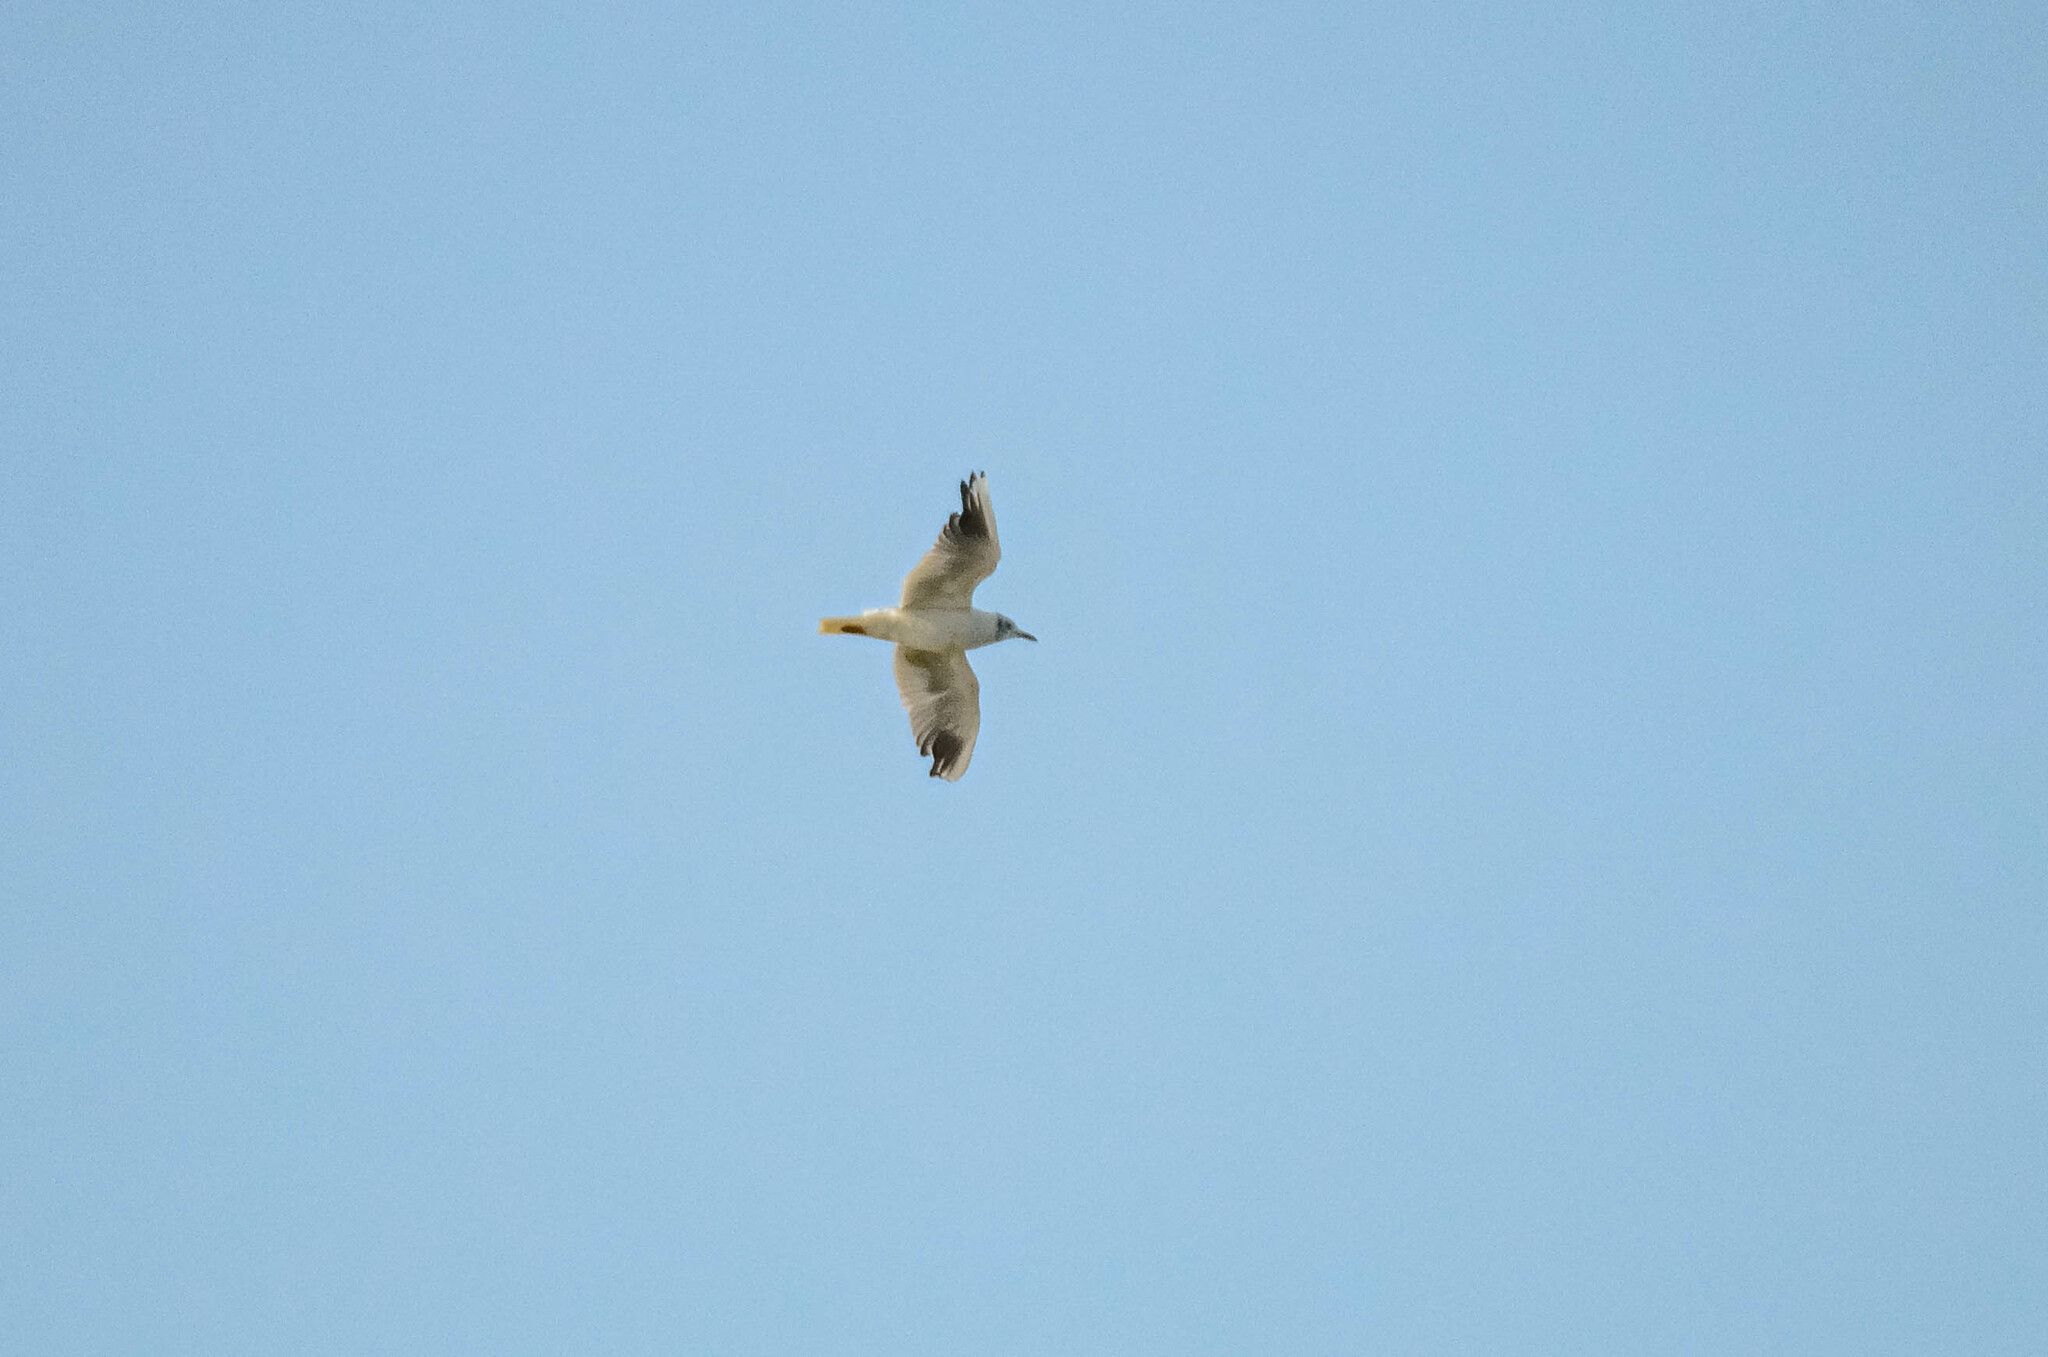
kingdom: Animalia
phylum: Chordata
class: Aves
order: Charadriiformes
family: Laridae
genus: Chroicocephalus
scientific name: Chroicocephalus ridibundus
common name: Black-headed gull
